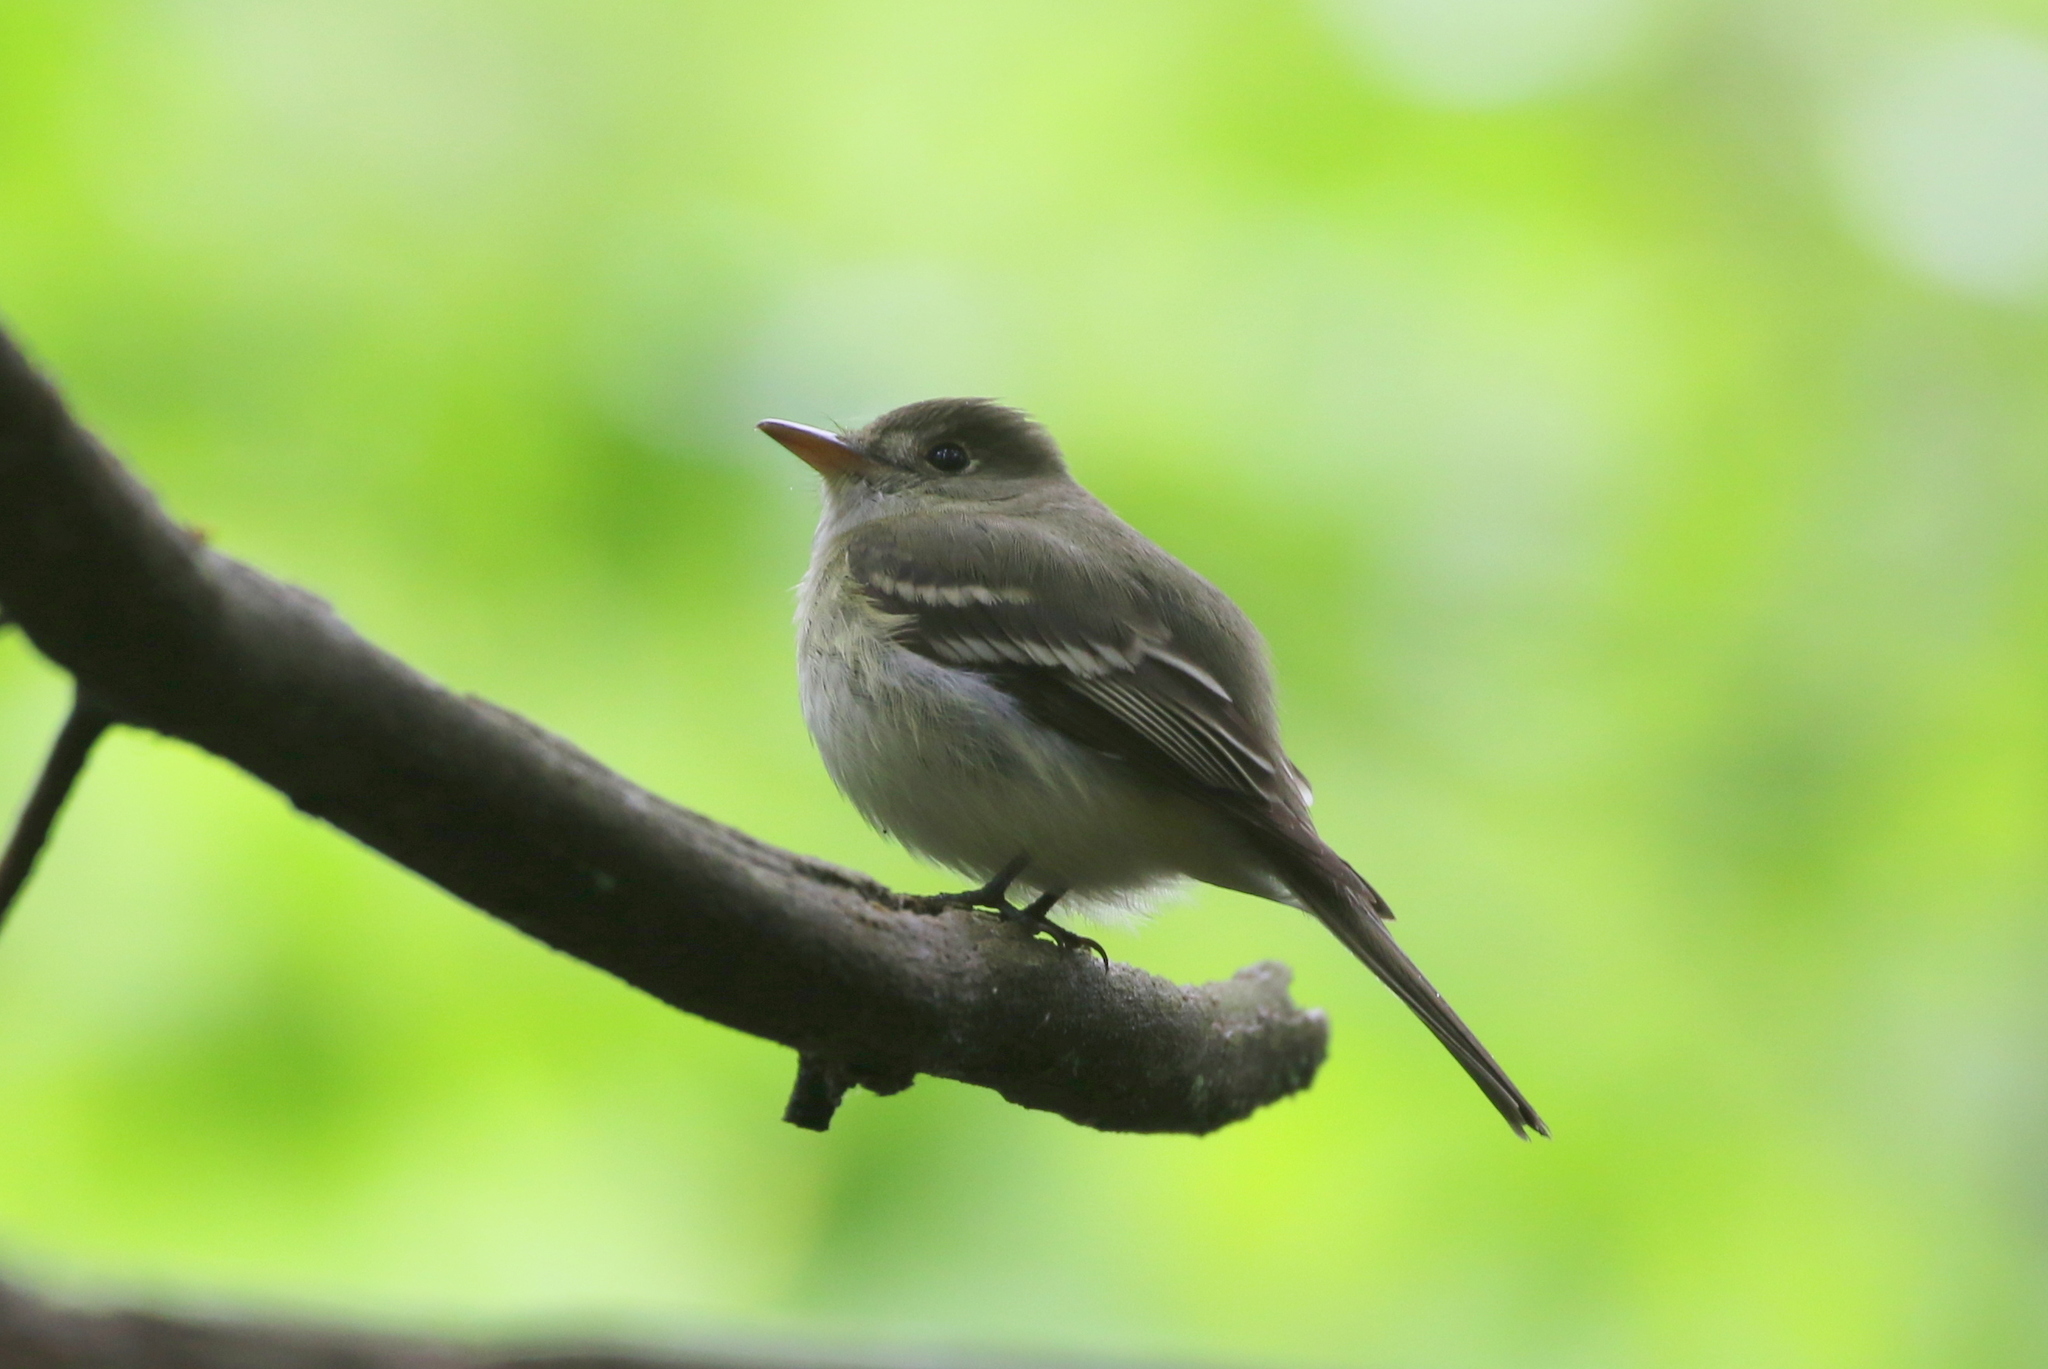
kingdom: Animalia
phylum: Chordata
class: Aves
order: Passeriformes
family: Tyrannidae
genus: Empidonax
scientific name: Empidonax virescens
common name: Acadian flycatcher
